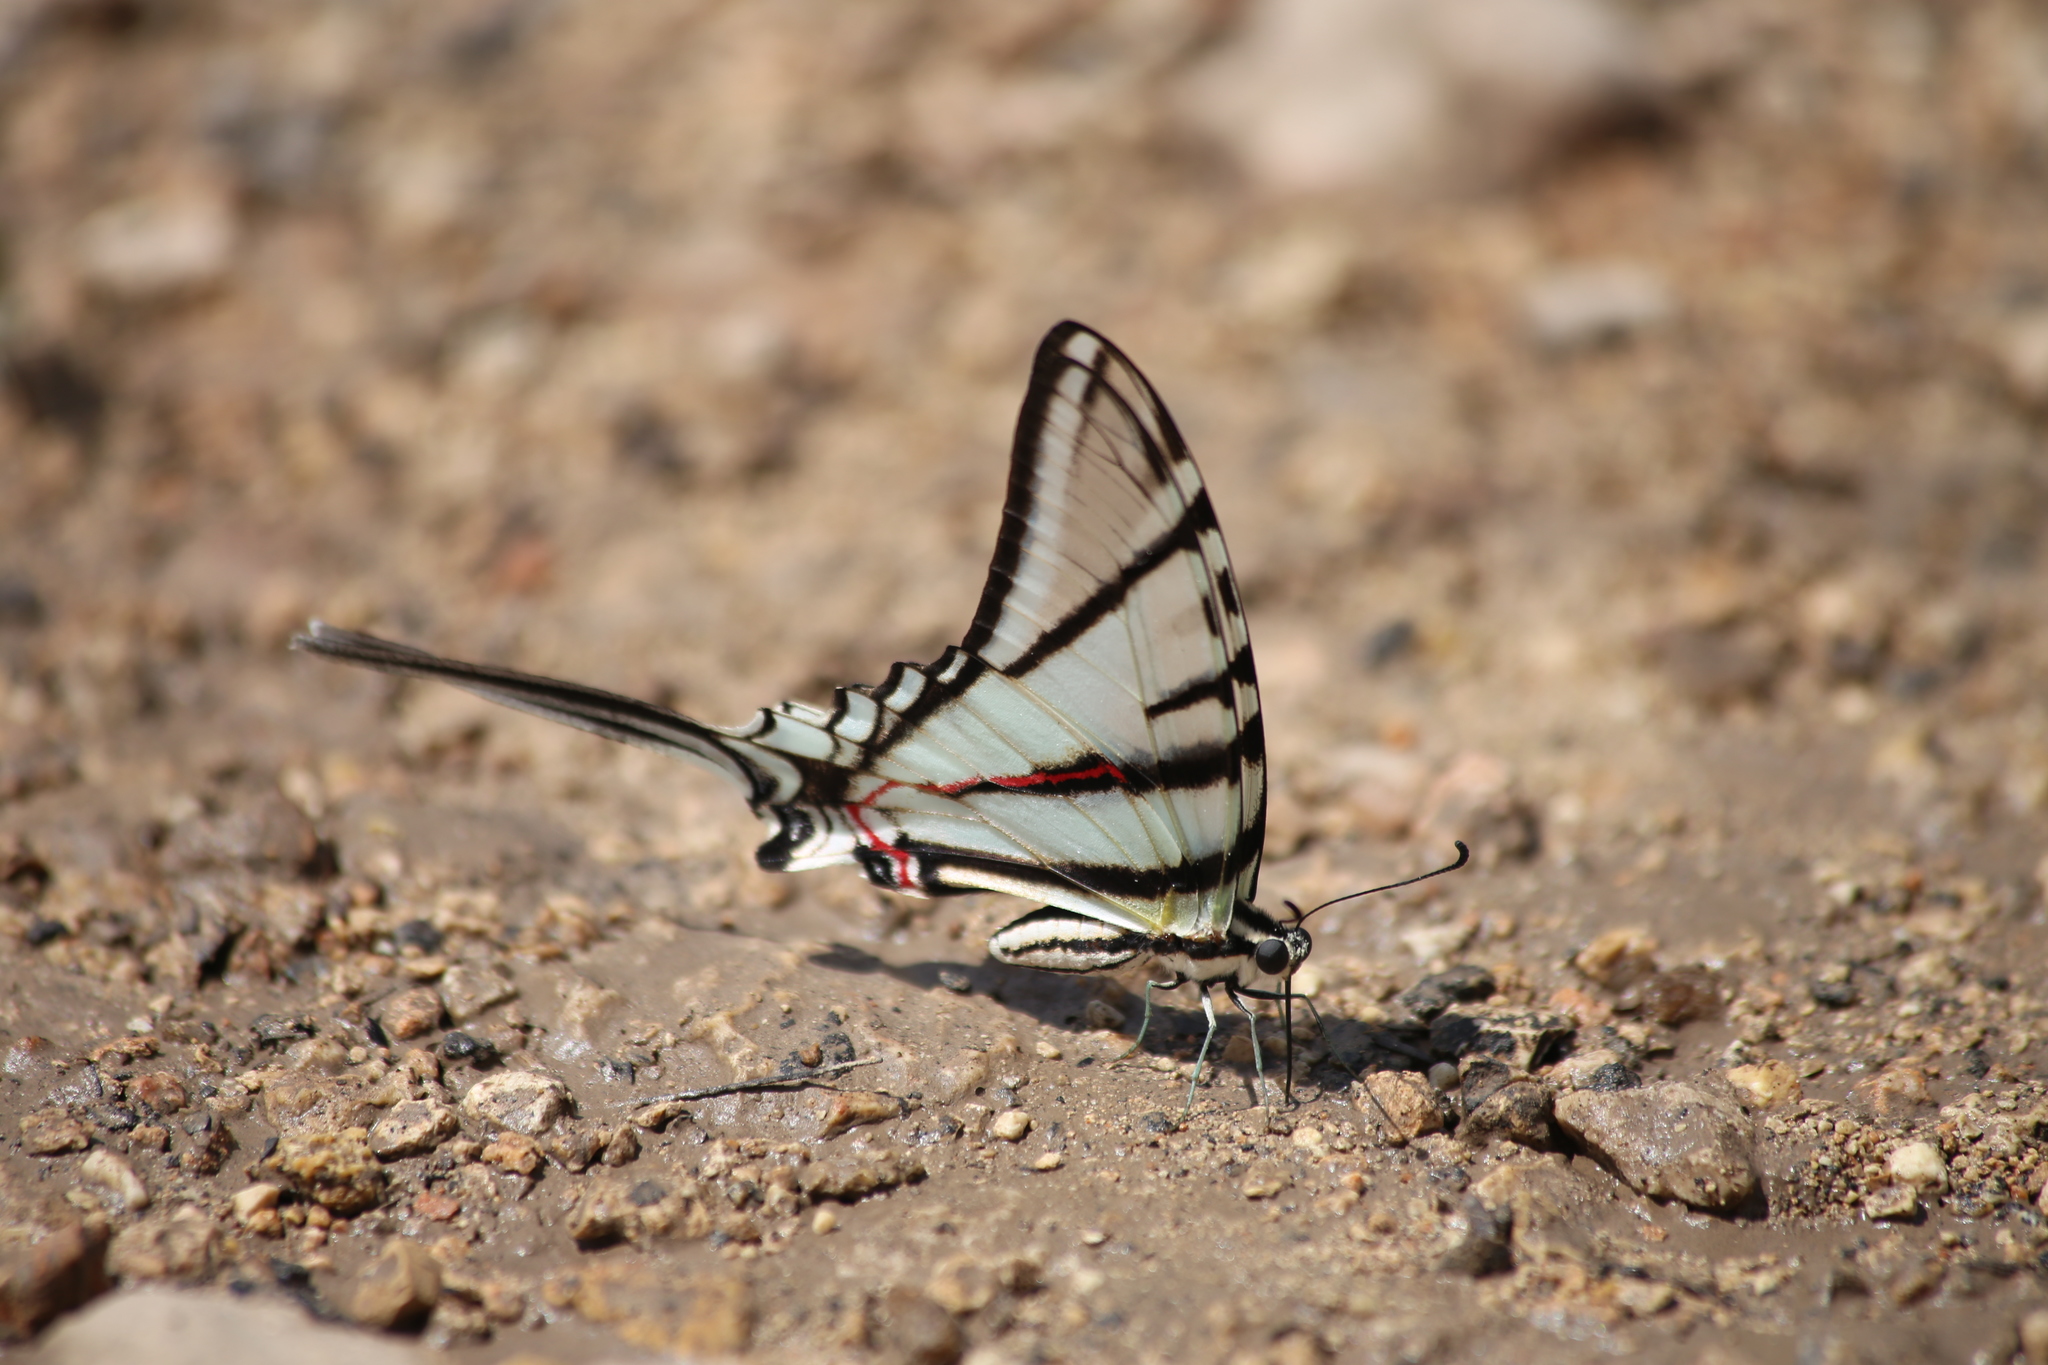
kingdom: Animalia
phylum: Arthropoda
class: Insecta
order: Lepidoptera
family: Papilionidae
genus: Protographium
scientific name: Protographium epidaus
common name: Mexican kite swallowtail
